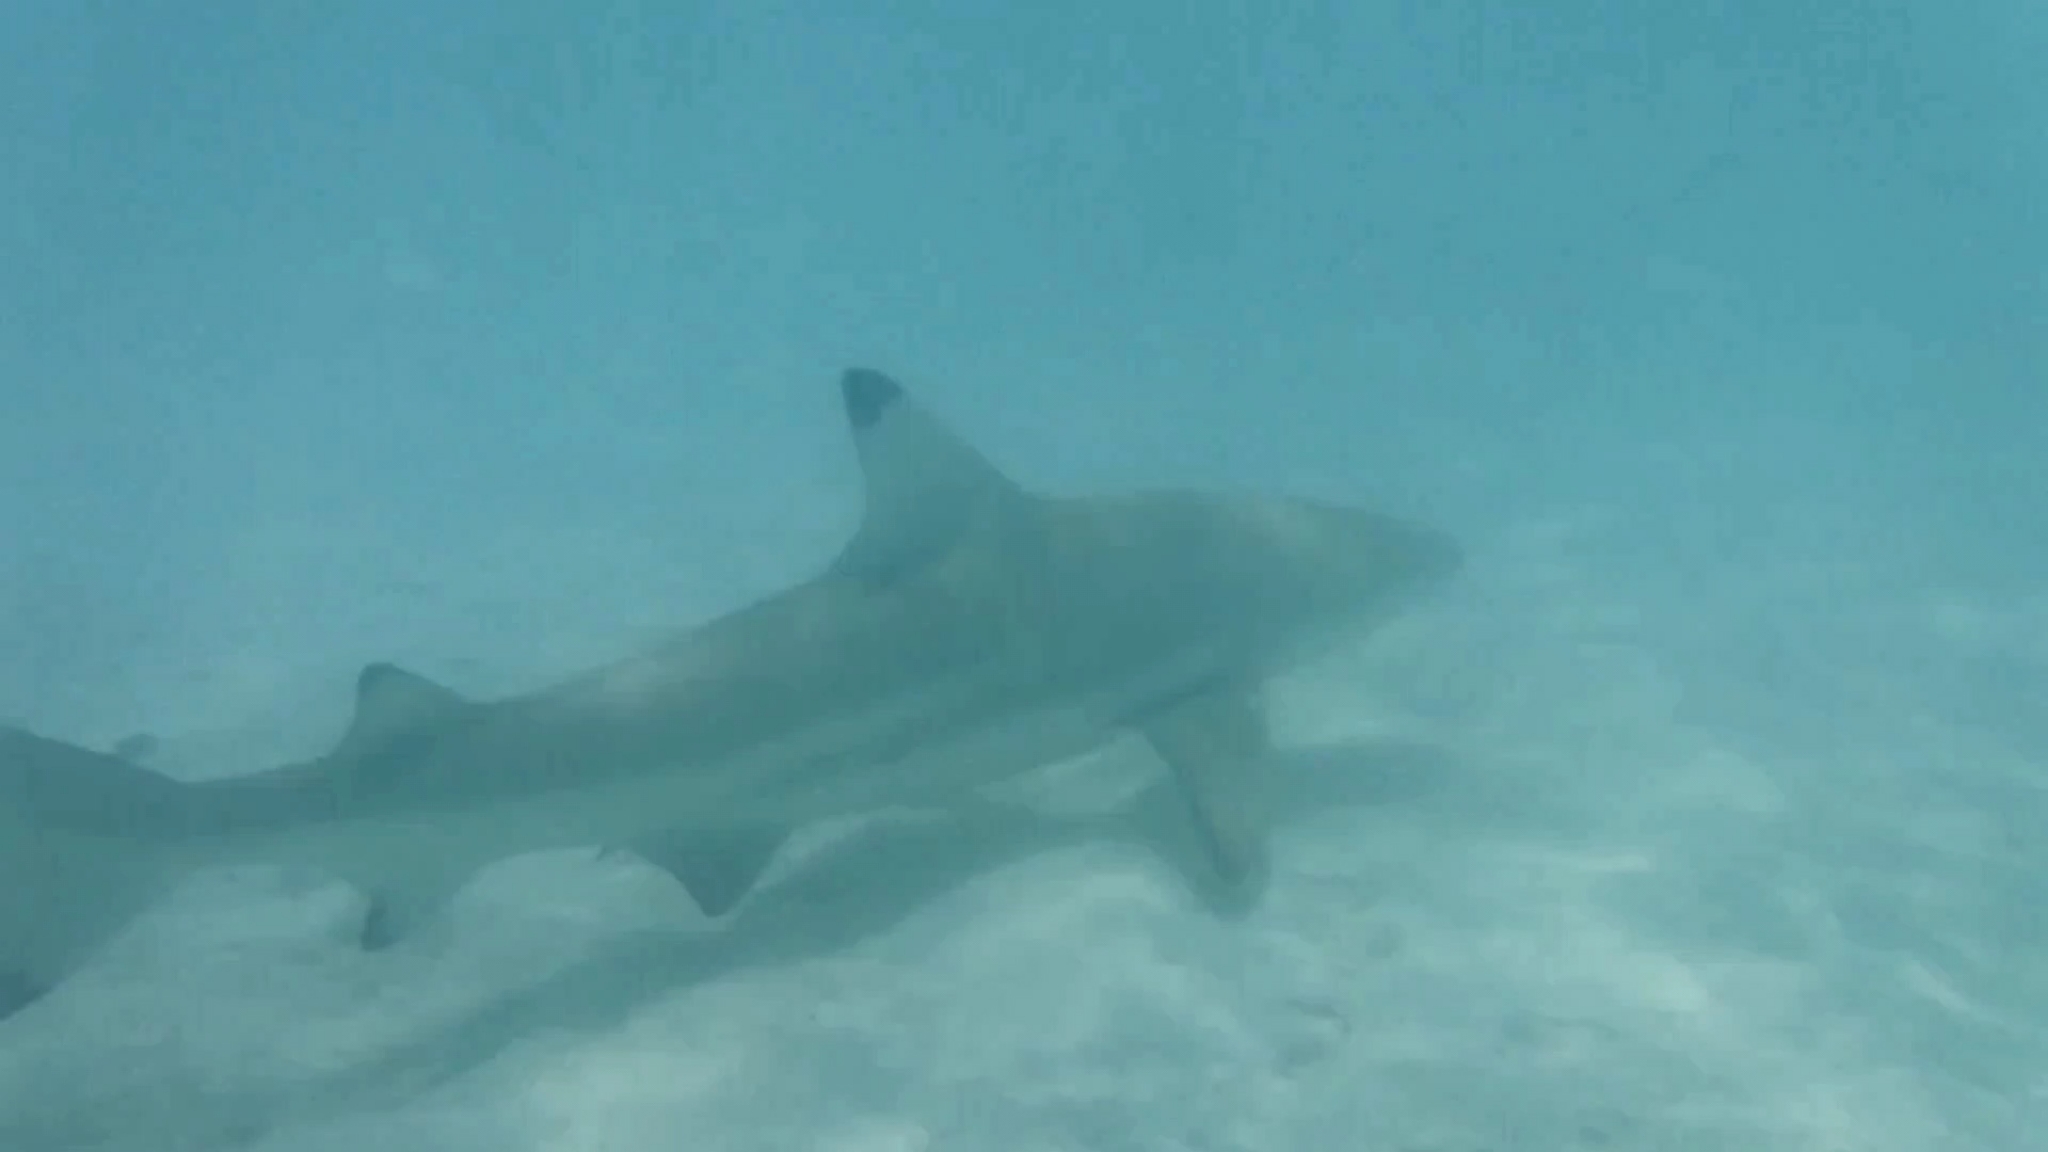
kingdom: Animalia
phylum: Chordata
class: Elasmobranchii
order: Carcharhiniformes
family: Carcharhinidae
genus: Carcharhinus
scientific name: Carcharhinus melanopterus
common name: Blacktip reef shark
